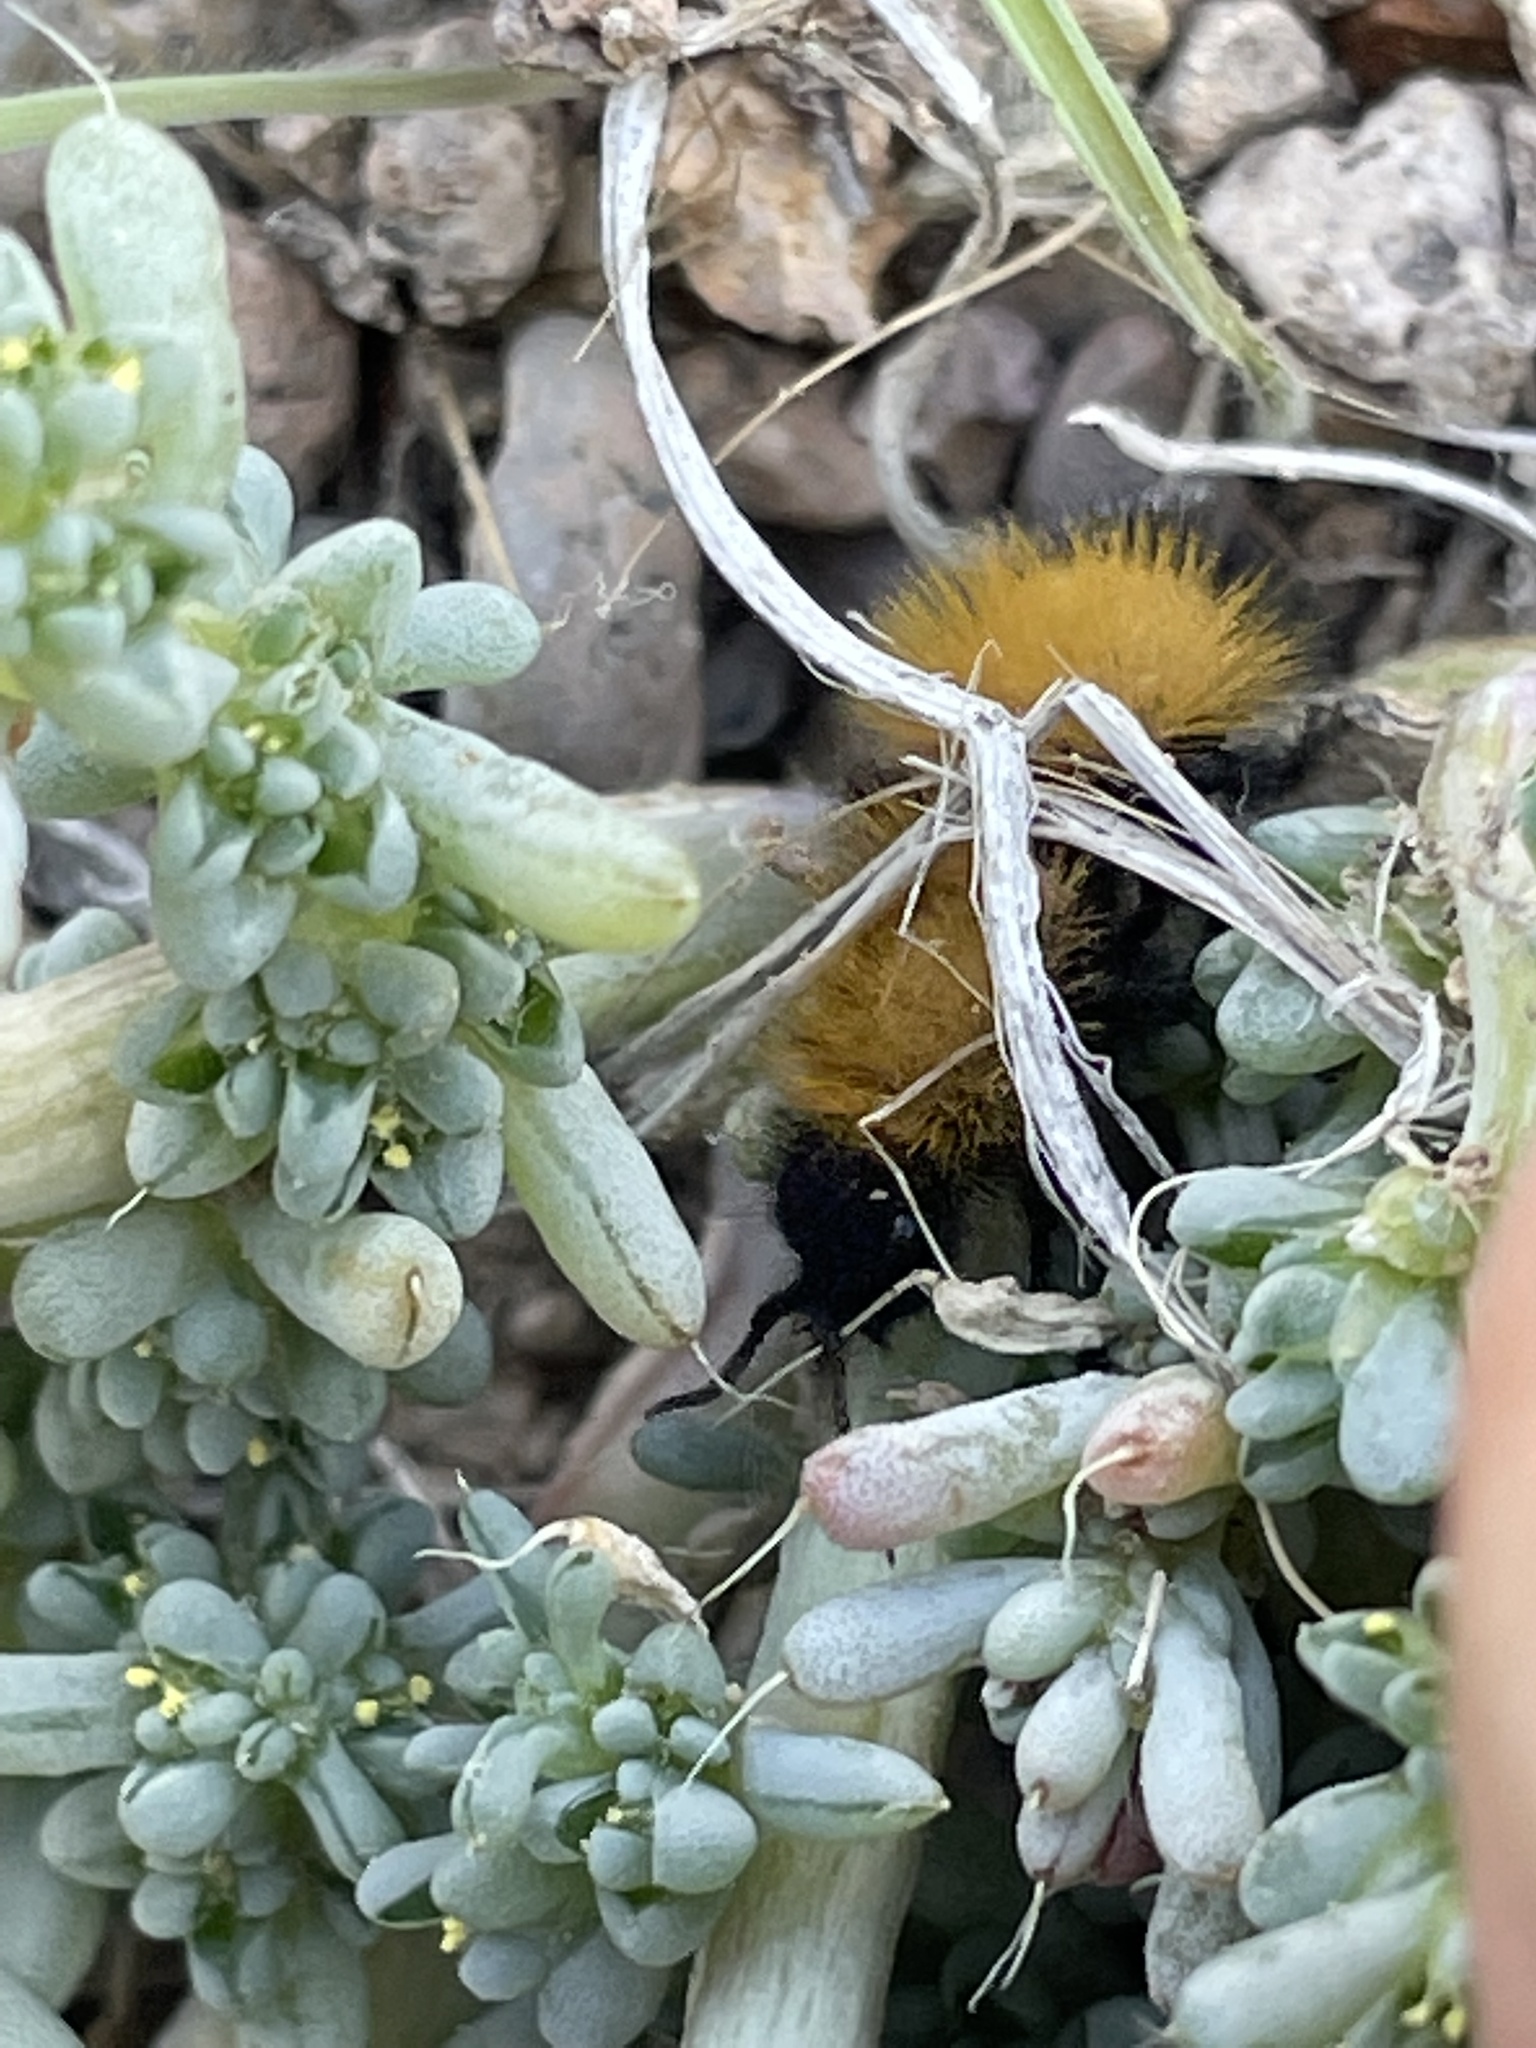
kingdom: Animalia
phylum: Arthropoda
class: Insecta
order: Hymenoptera
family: Mutillidae
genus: Dasymutilla
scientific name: Dasymutilla
